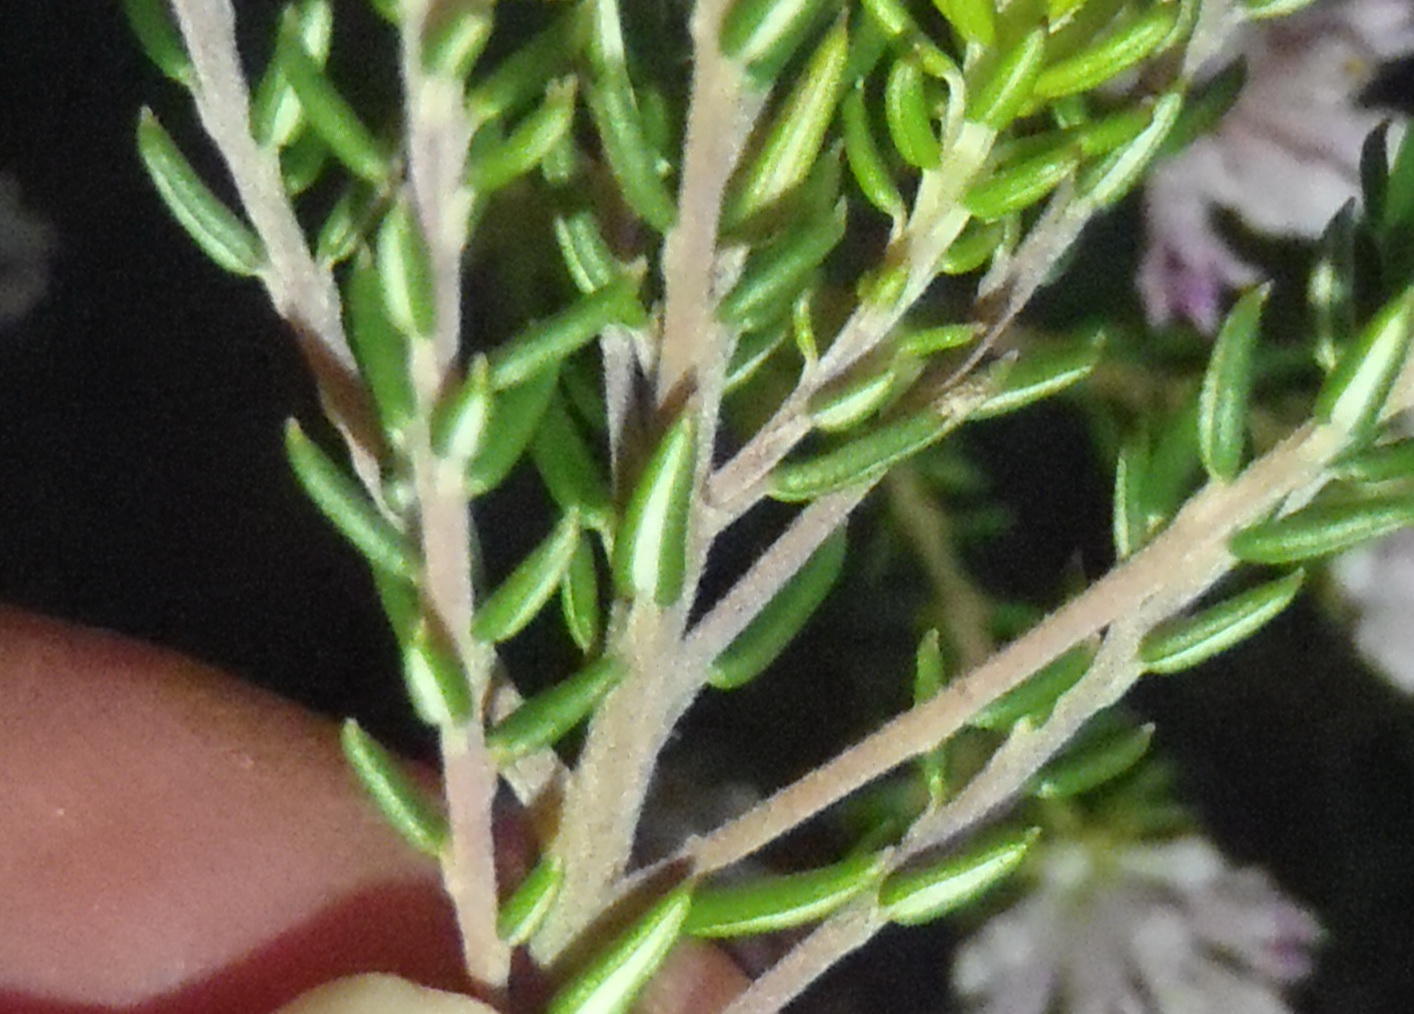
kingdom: Plantae
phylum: Tracheophyta
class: Magnoliopsida
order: Rosales
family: Rhamnaceae
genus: Phylica
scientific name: Phylica lachneaeoides
